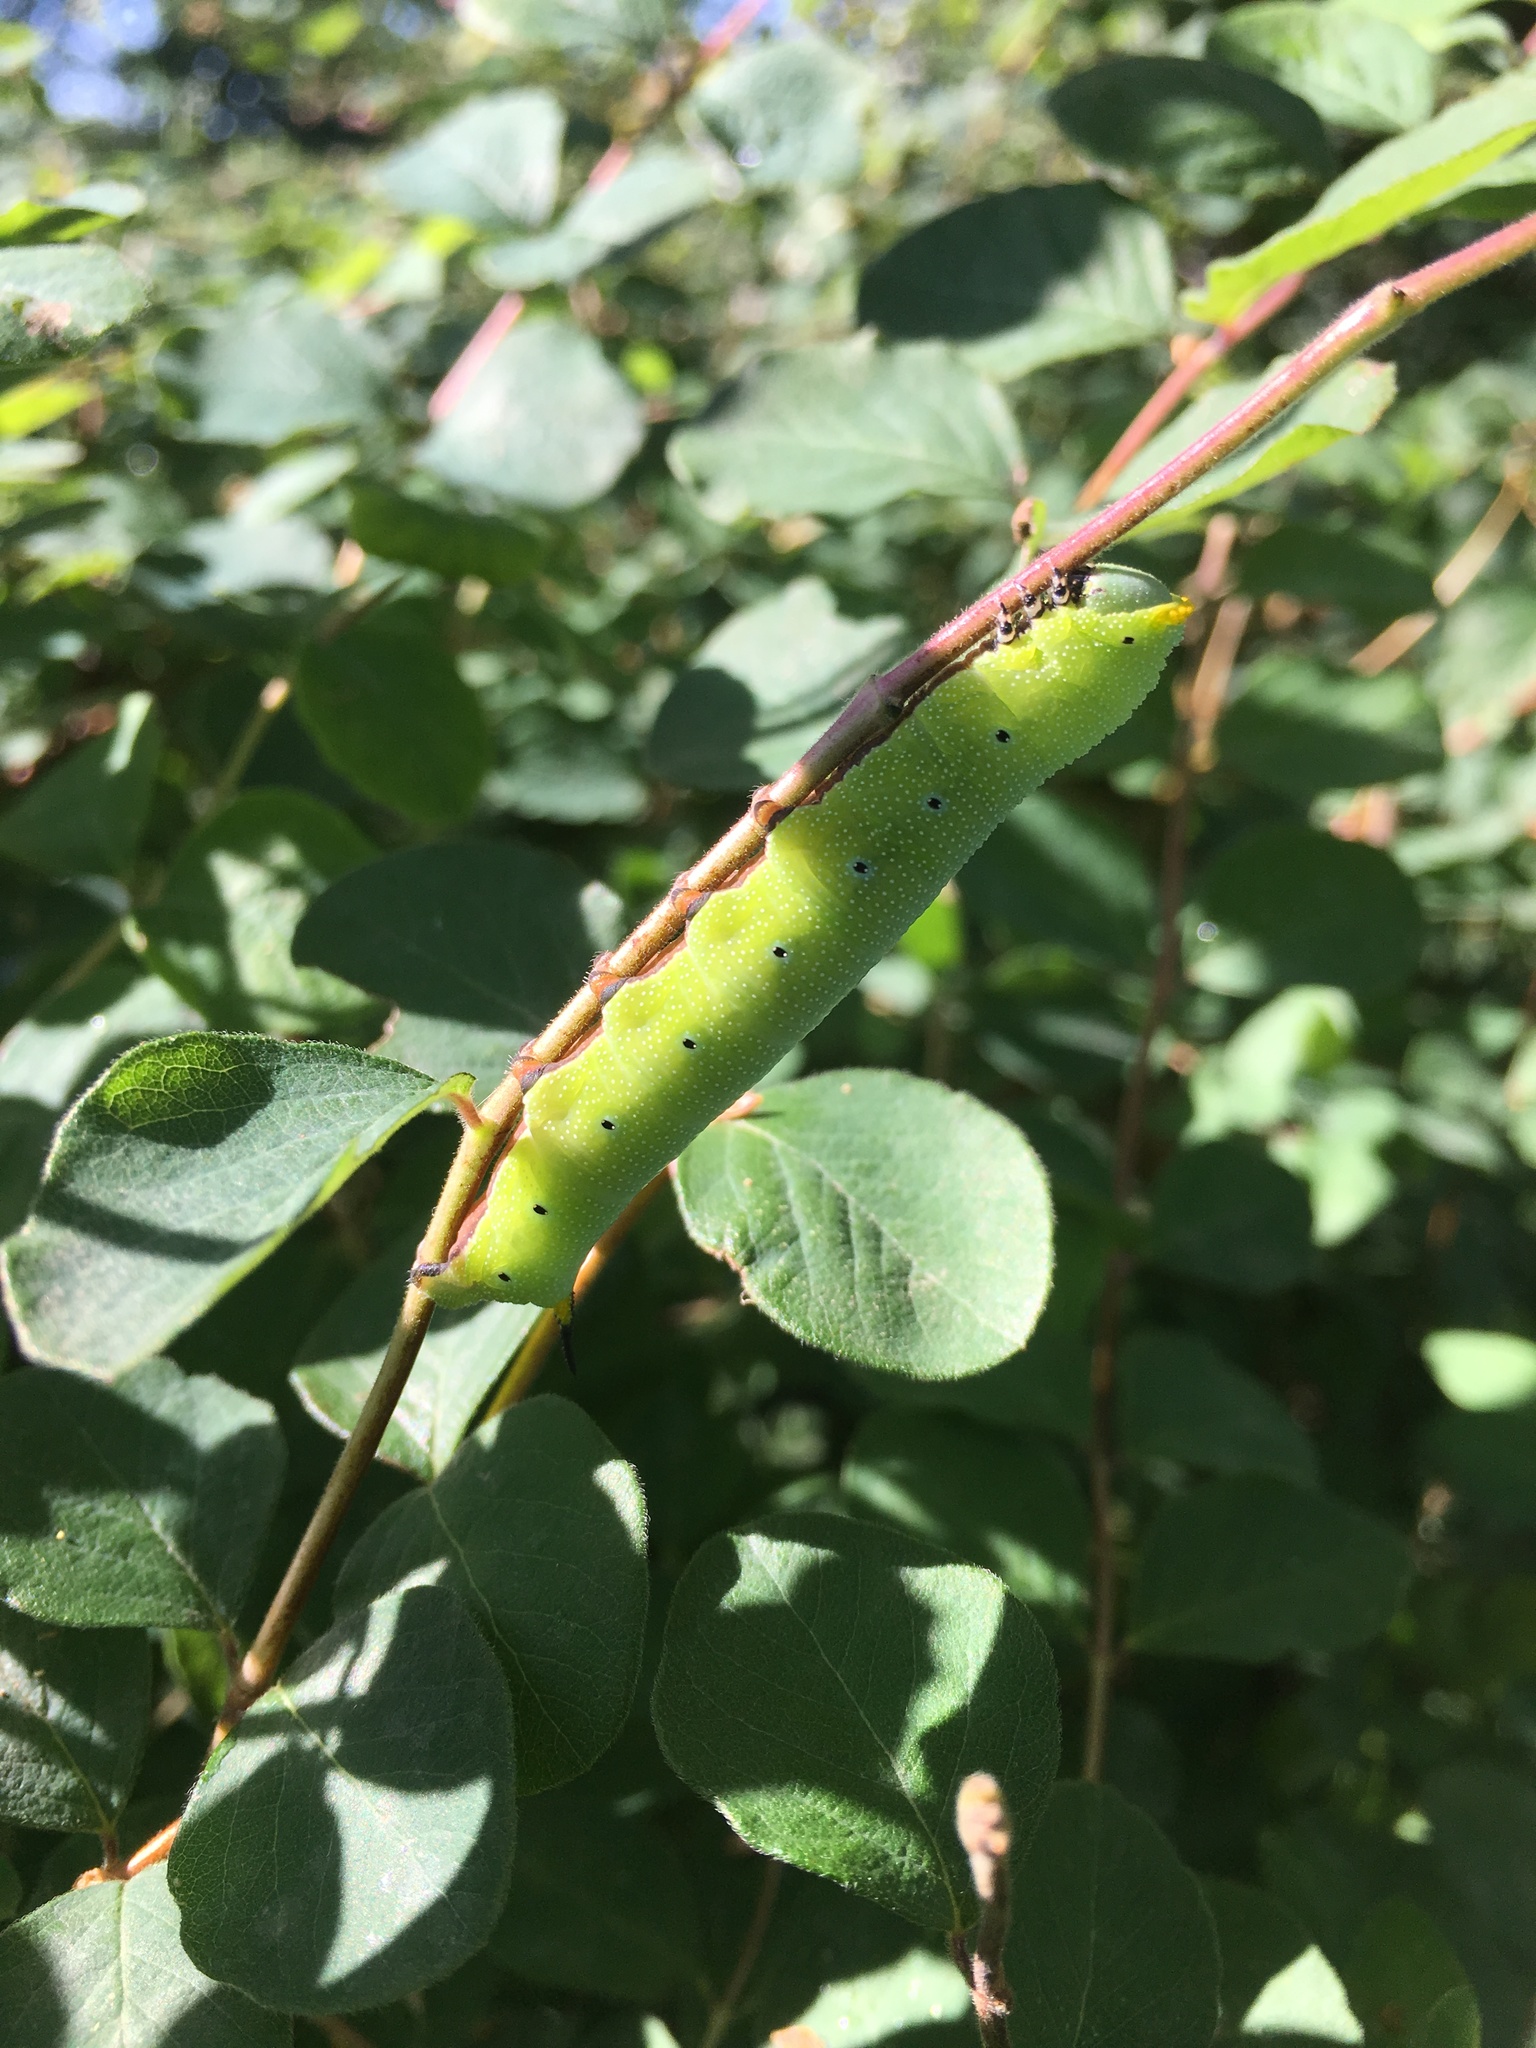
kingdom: Animalia
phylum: Arthropoda
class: Insecta
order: Lepidoptera
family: Sphingidae
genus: Hemaris
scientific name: Hemaris diffinis
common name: Bumblebee moth
